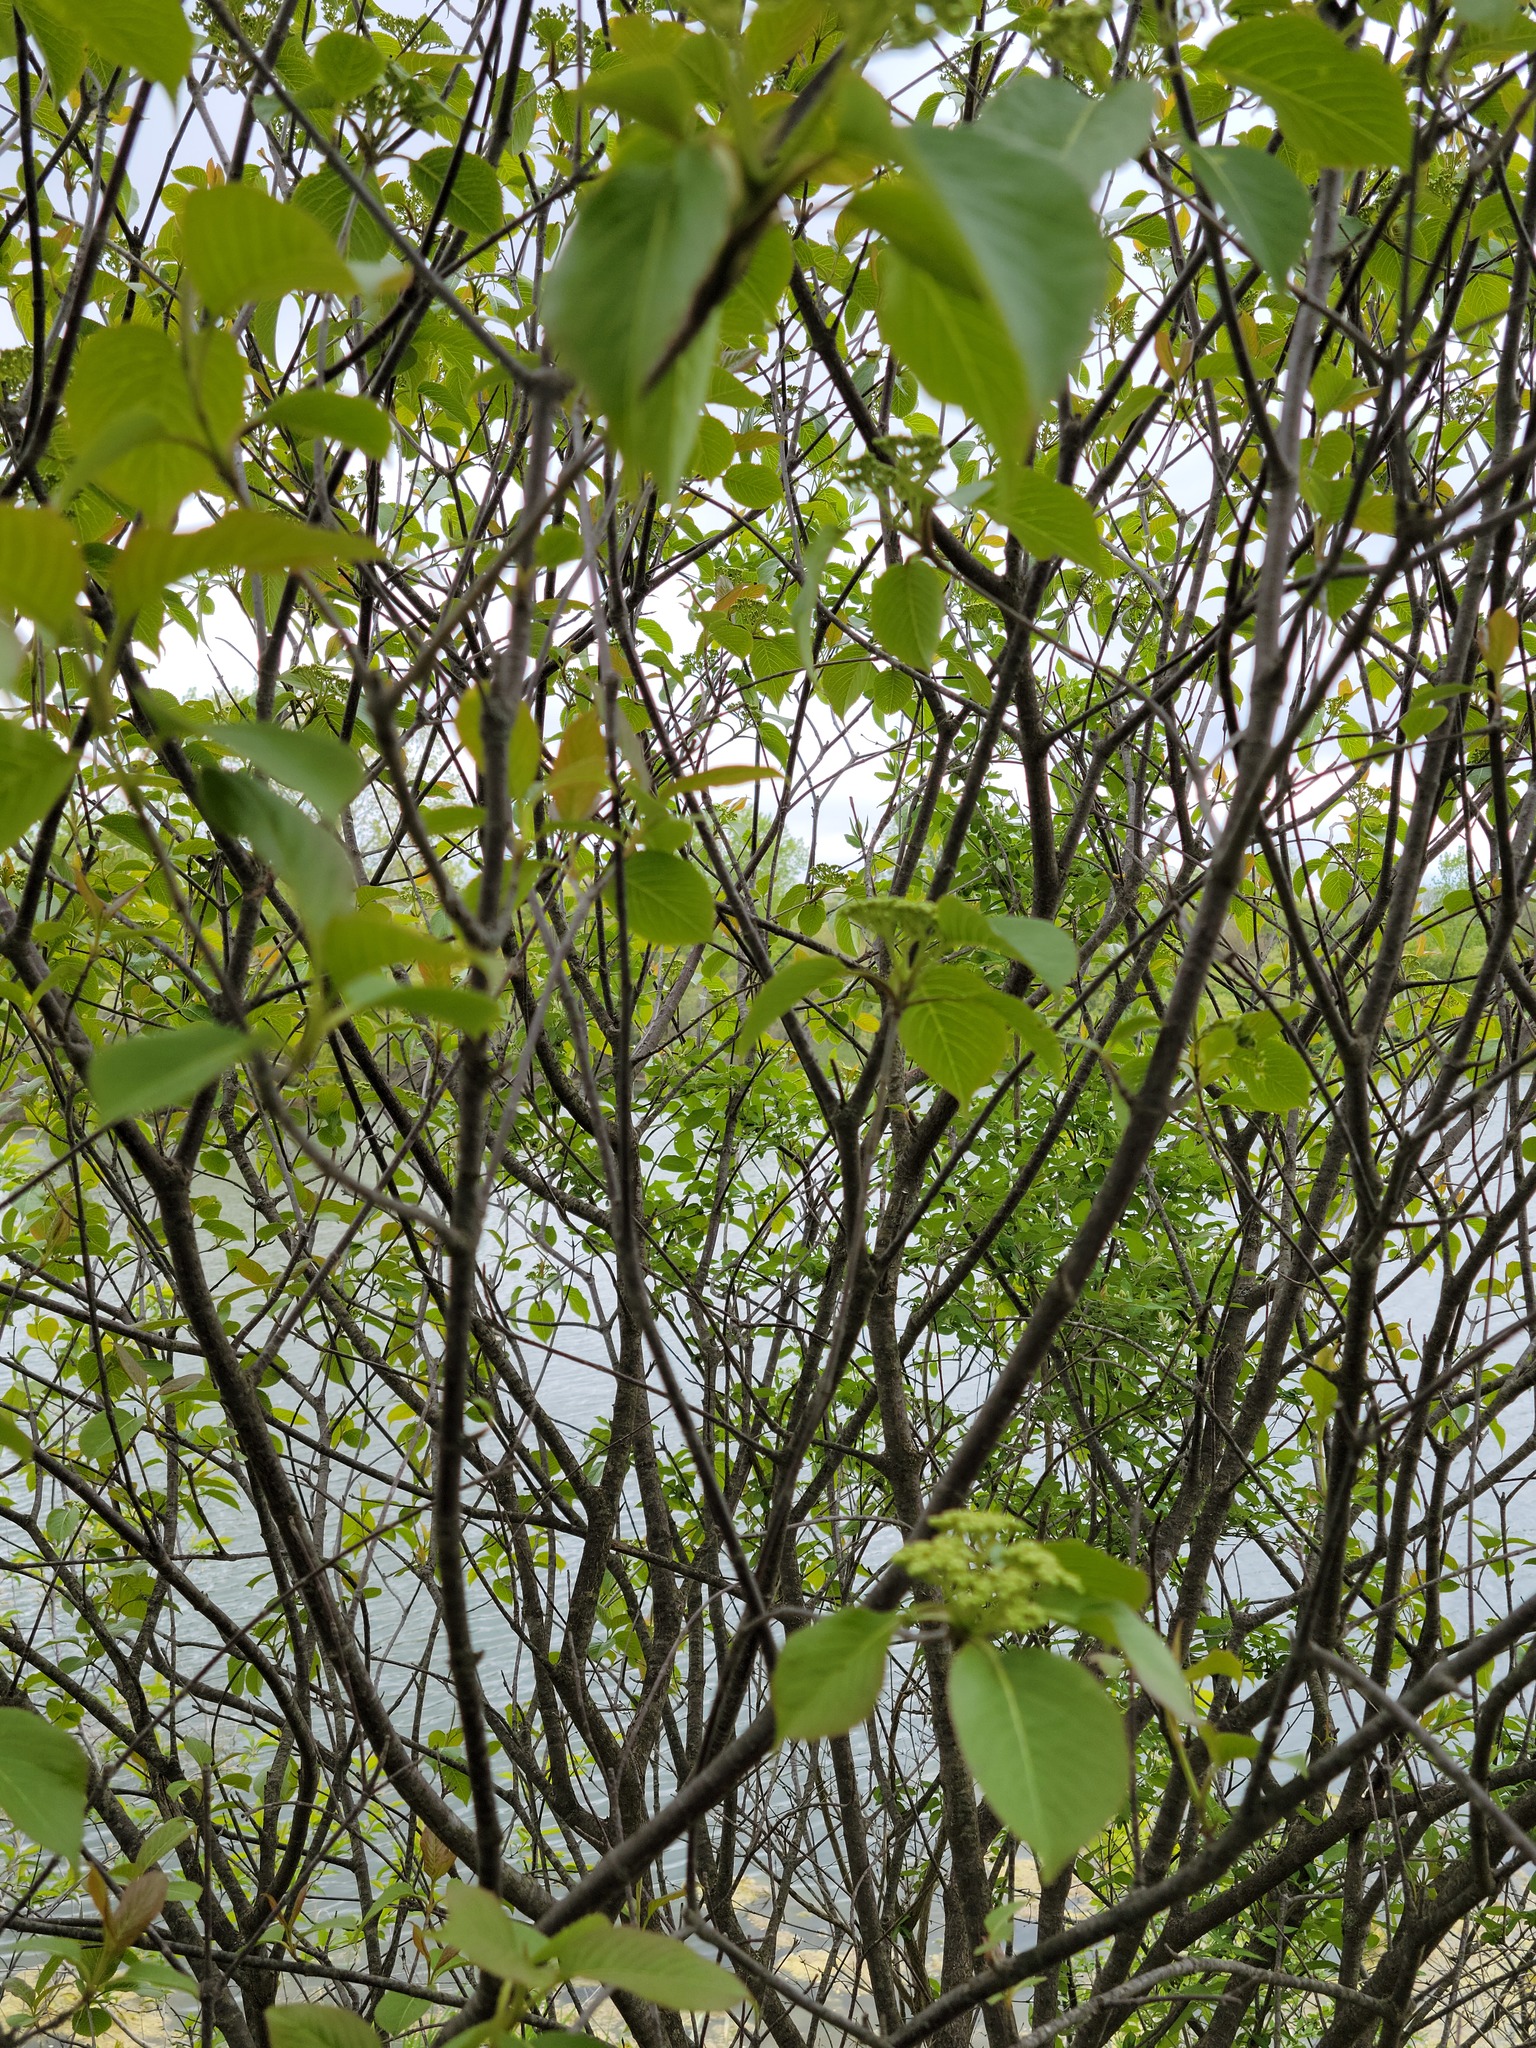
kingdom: Plantae
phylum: Tracheophyta
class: Magnoliopsida
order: Dipsacales
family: Viburnaceae
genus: Viburnum
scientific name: Viburnum lentago
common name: Black haw
